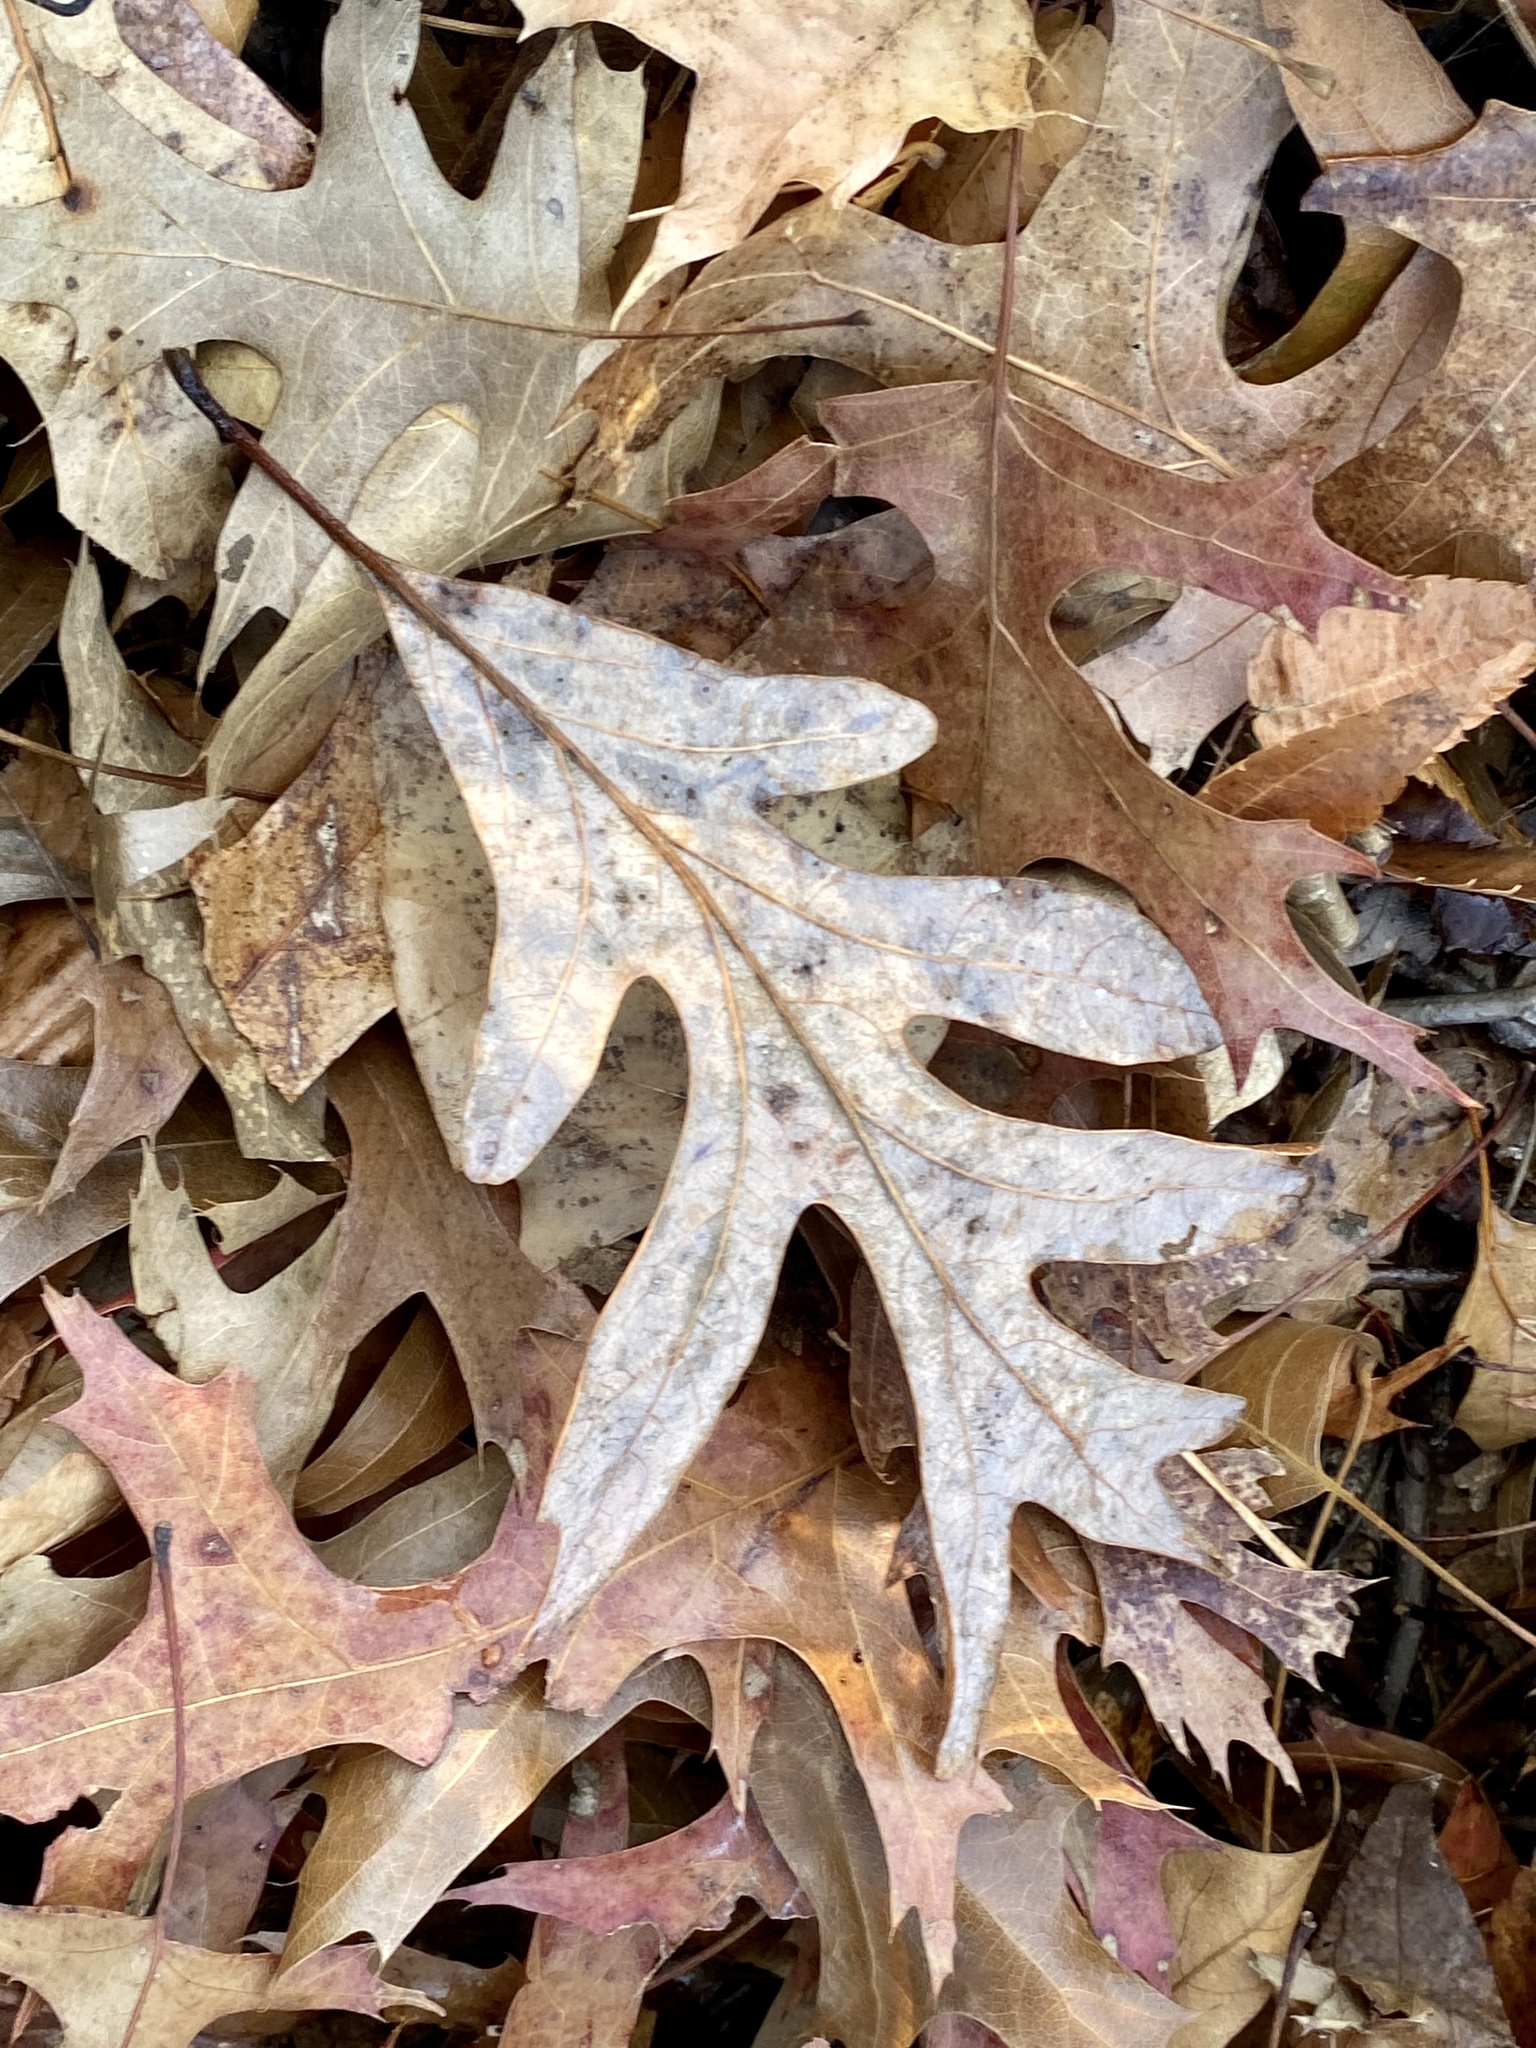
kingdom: Plantae
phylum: Tracheophyta
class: Magnoliopsida
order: Fagales
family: Fagaceae
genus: Quercus
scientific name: Quercus alba
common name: White oak
